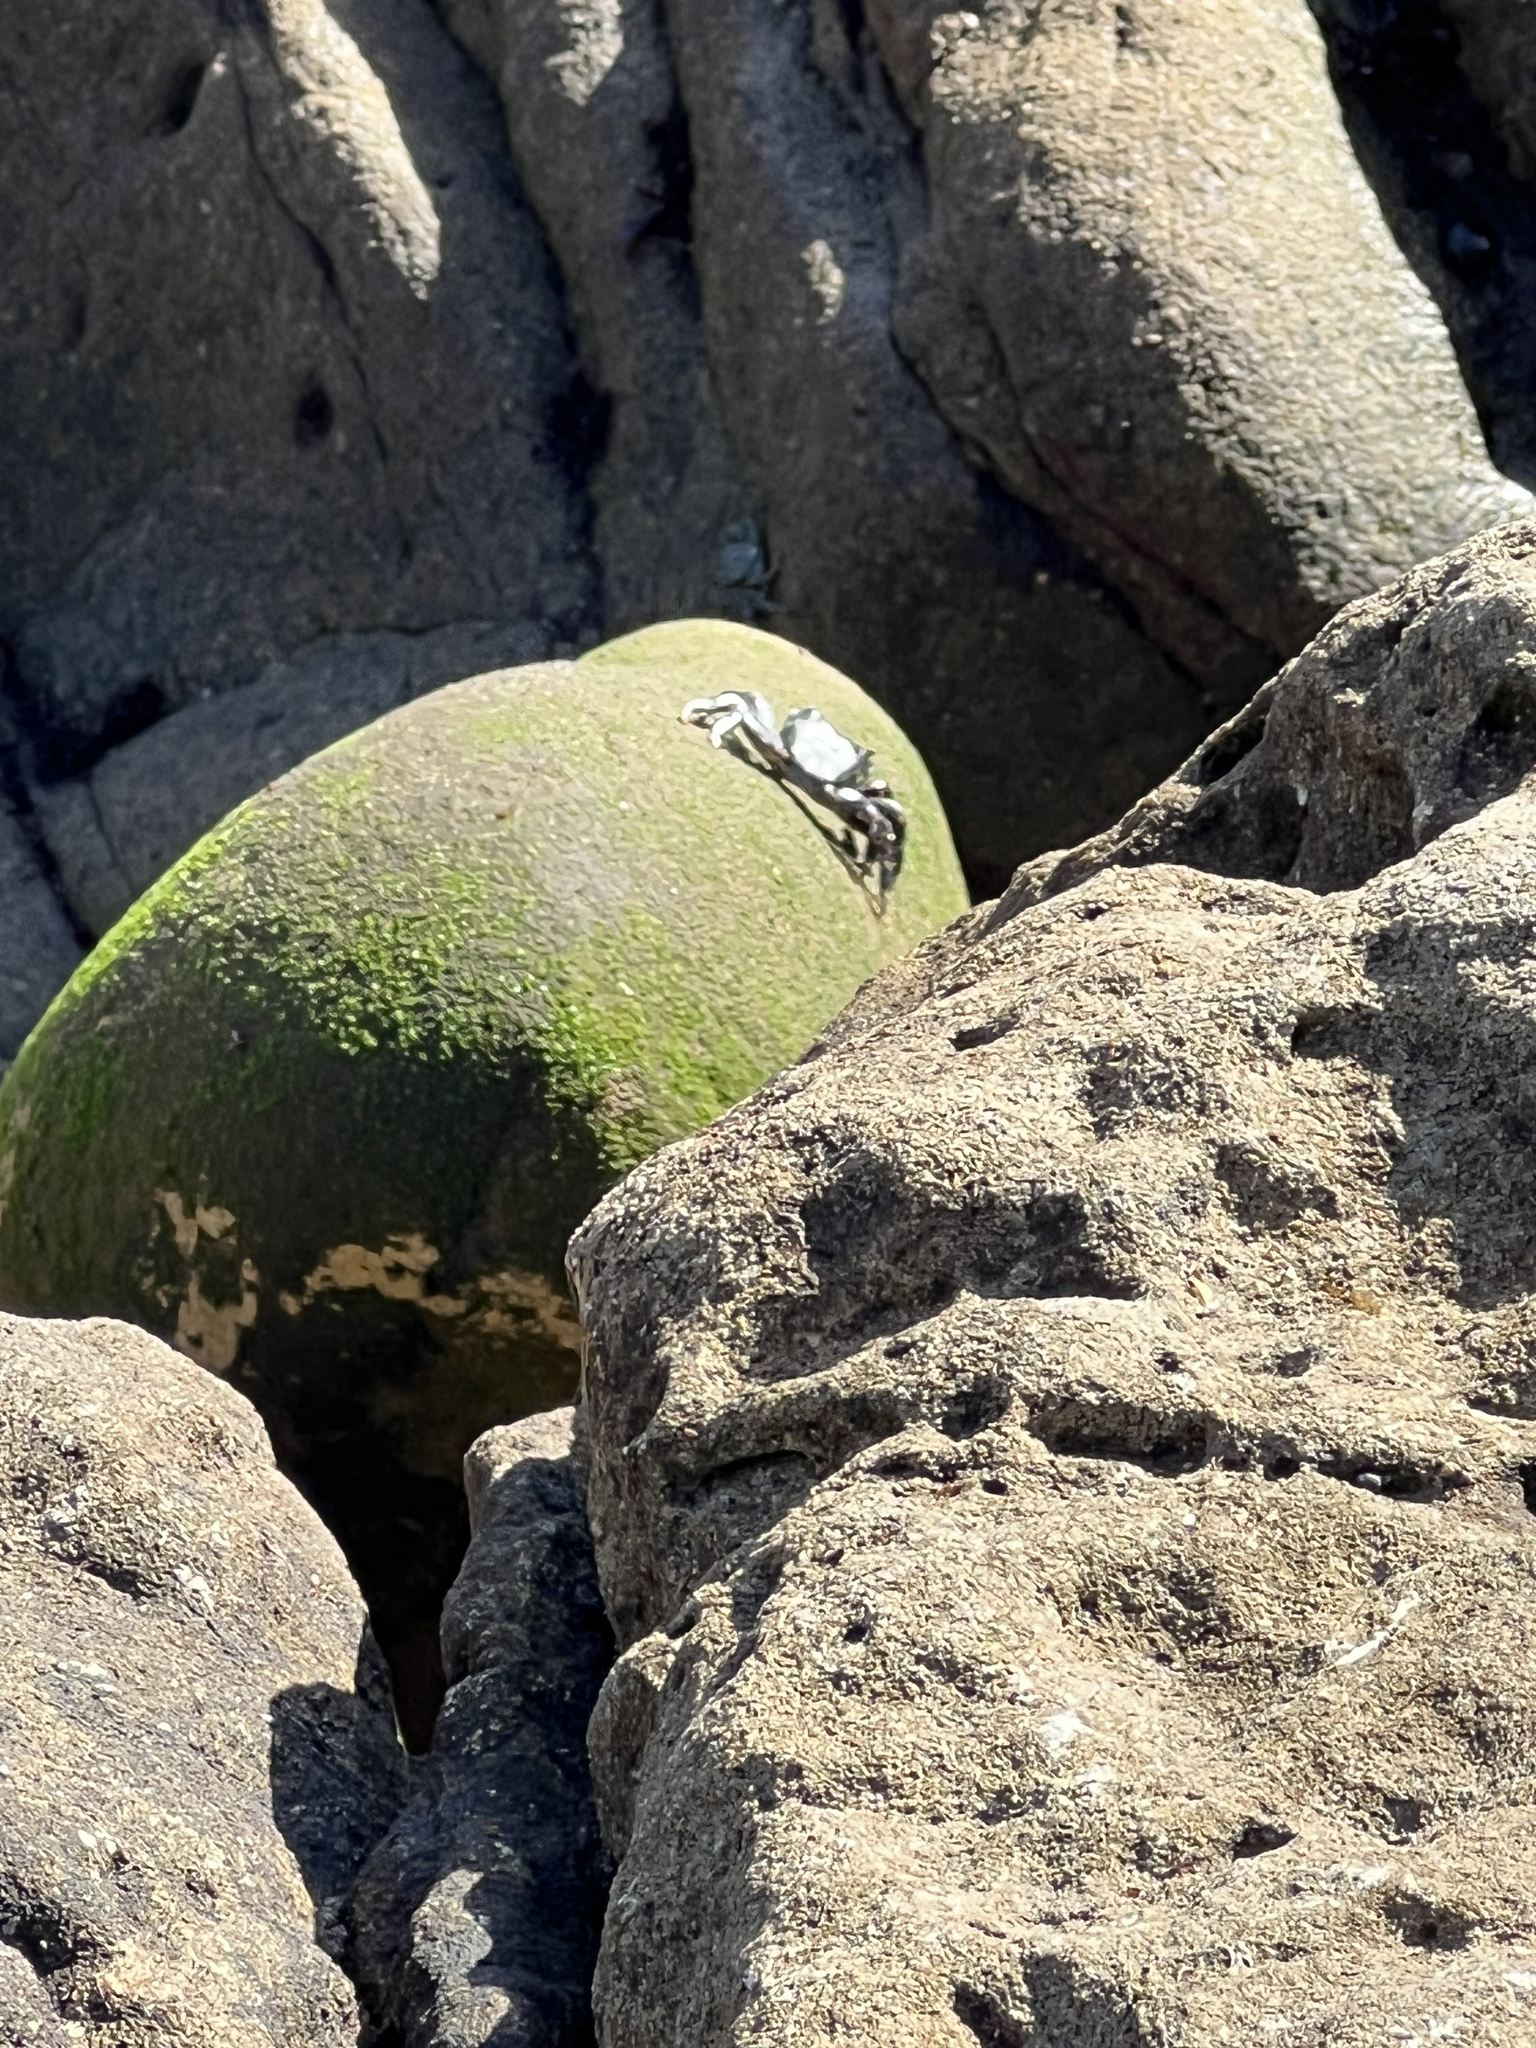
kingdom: Animalia
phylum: Arthropoda
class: Malacostraca
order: Decapoda
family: Grapsidae
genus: Pachygrapsus
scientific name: Pachygrapsus crassipes
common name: Striped shore crab
